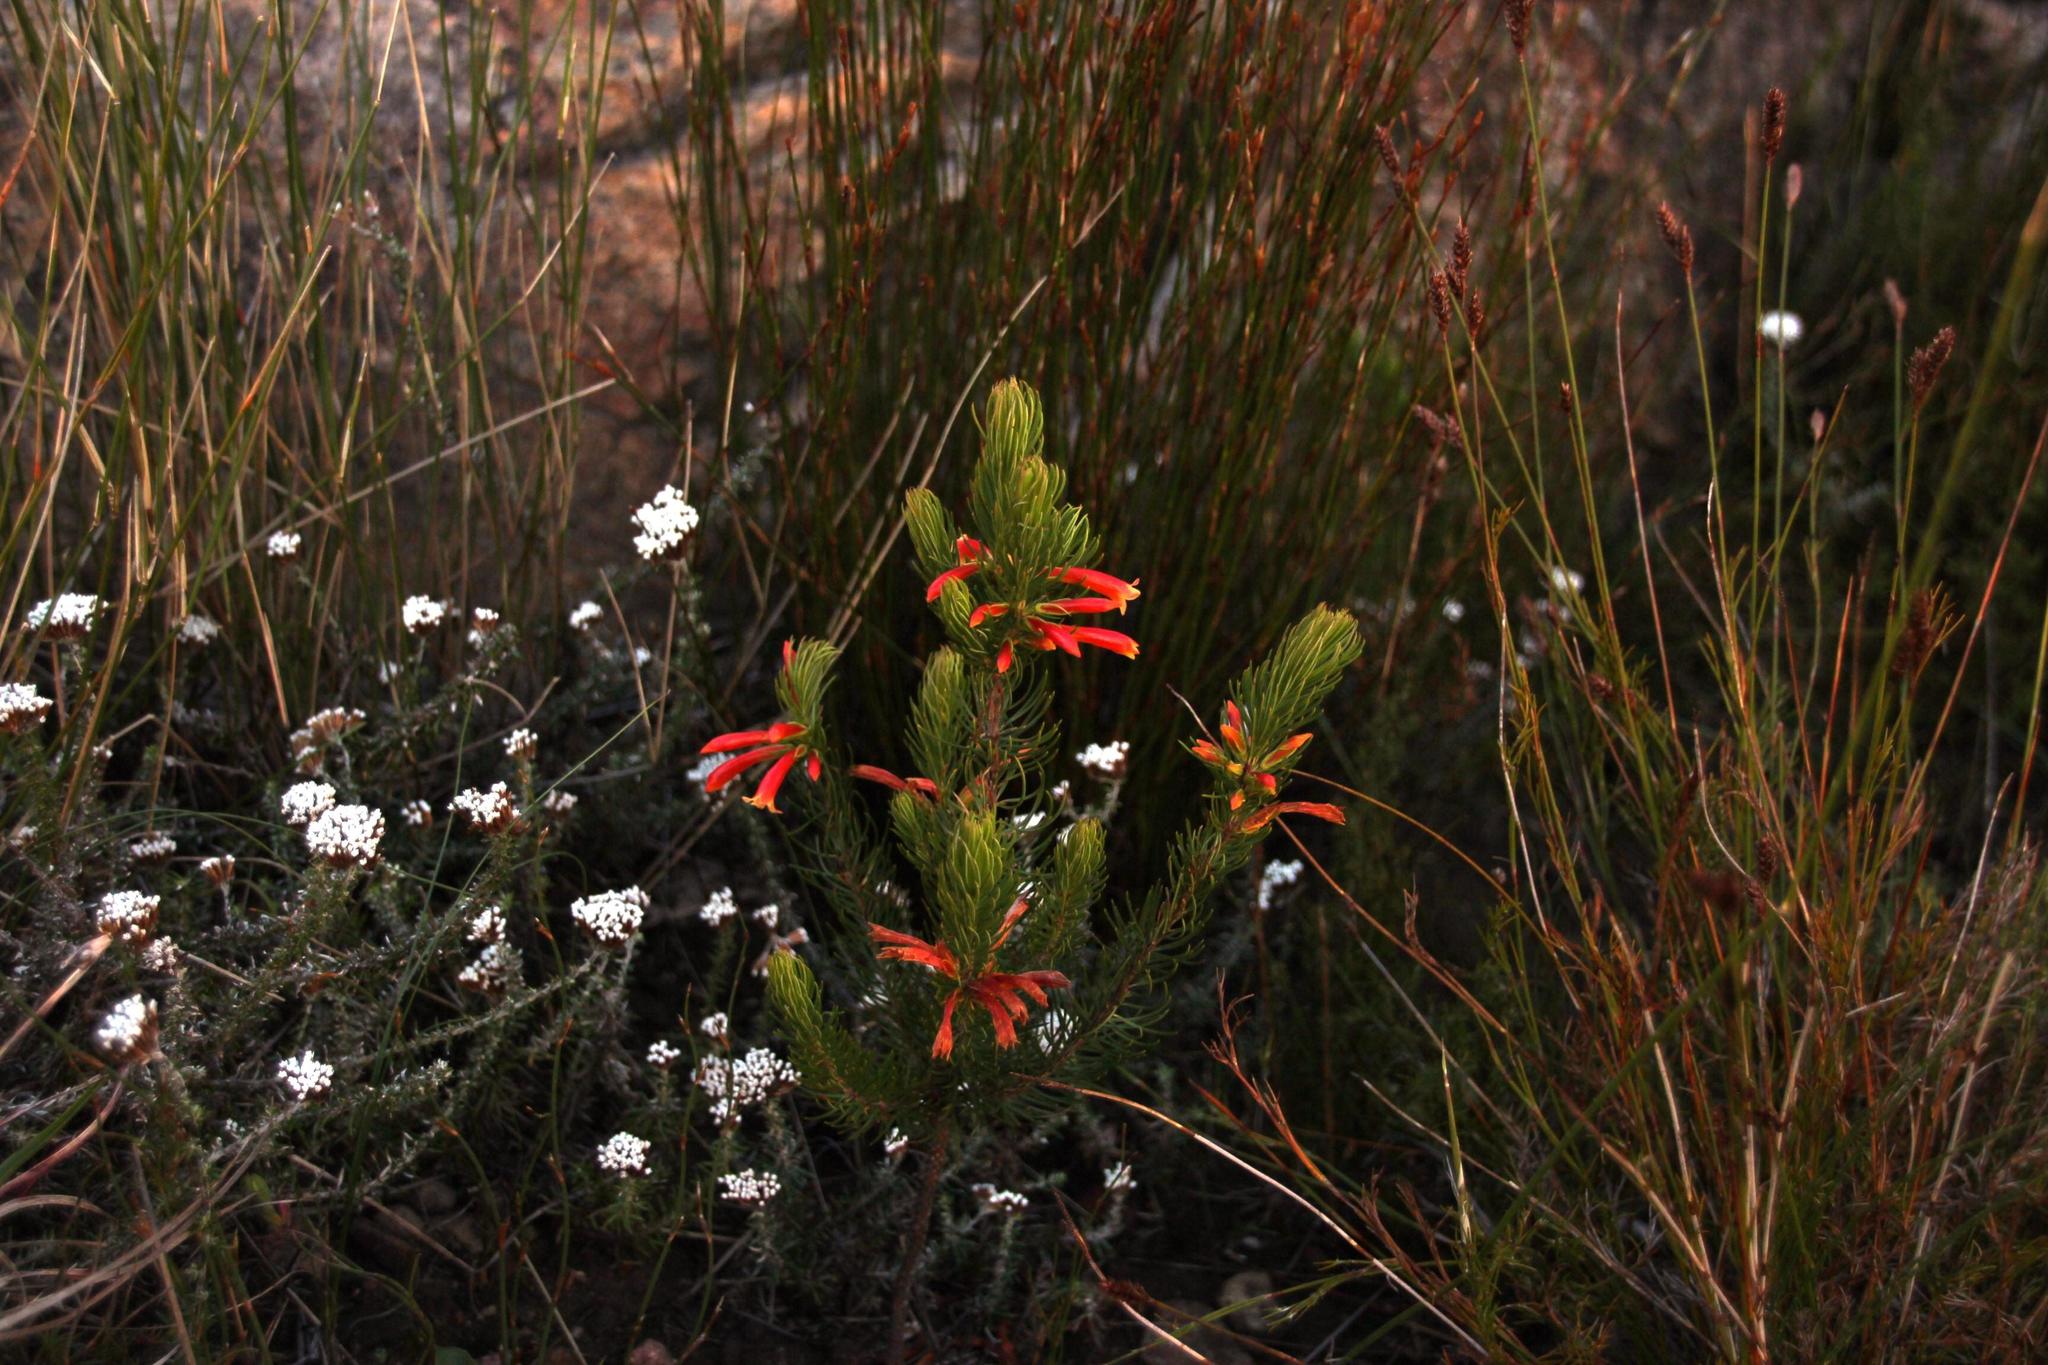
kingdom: Plantae
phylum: Tracheophyta
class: Magnoliopsida
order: Ericales
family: Ericaceae
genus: Erica
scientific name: Erica grandiflora
